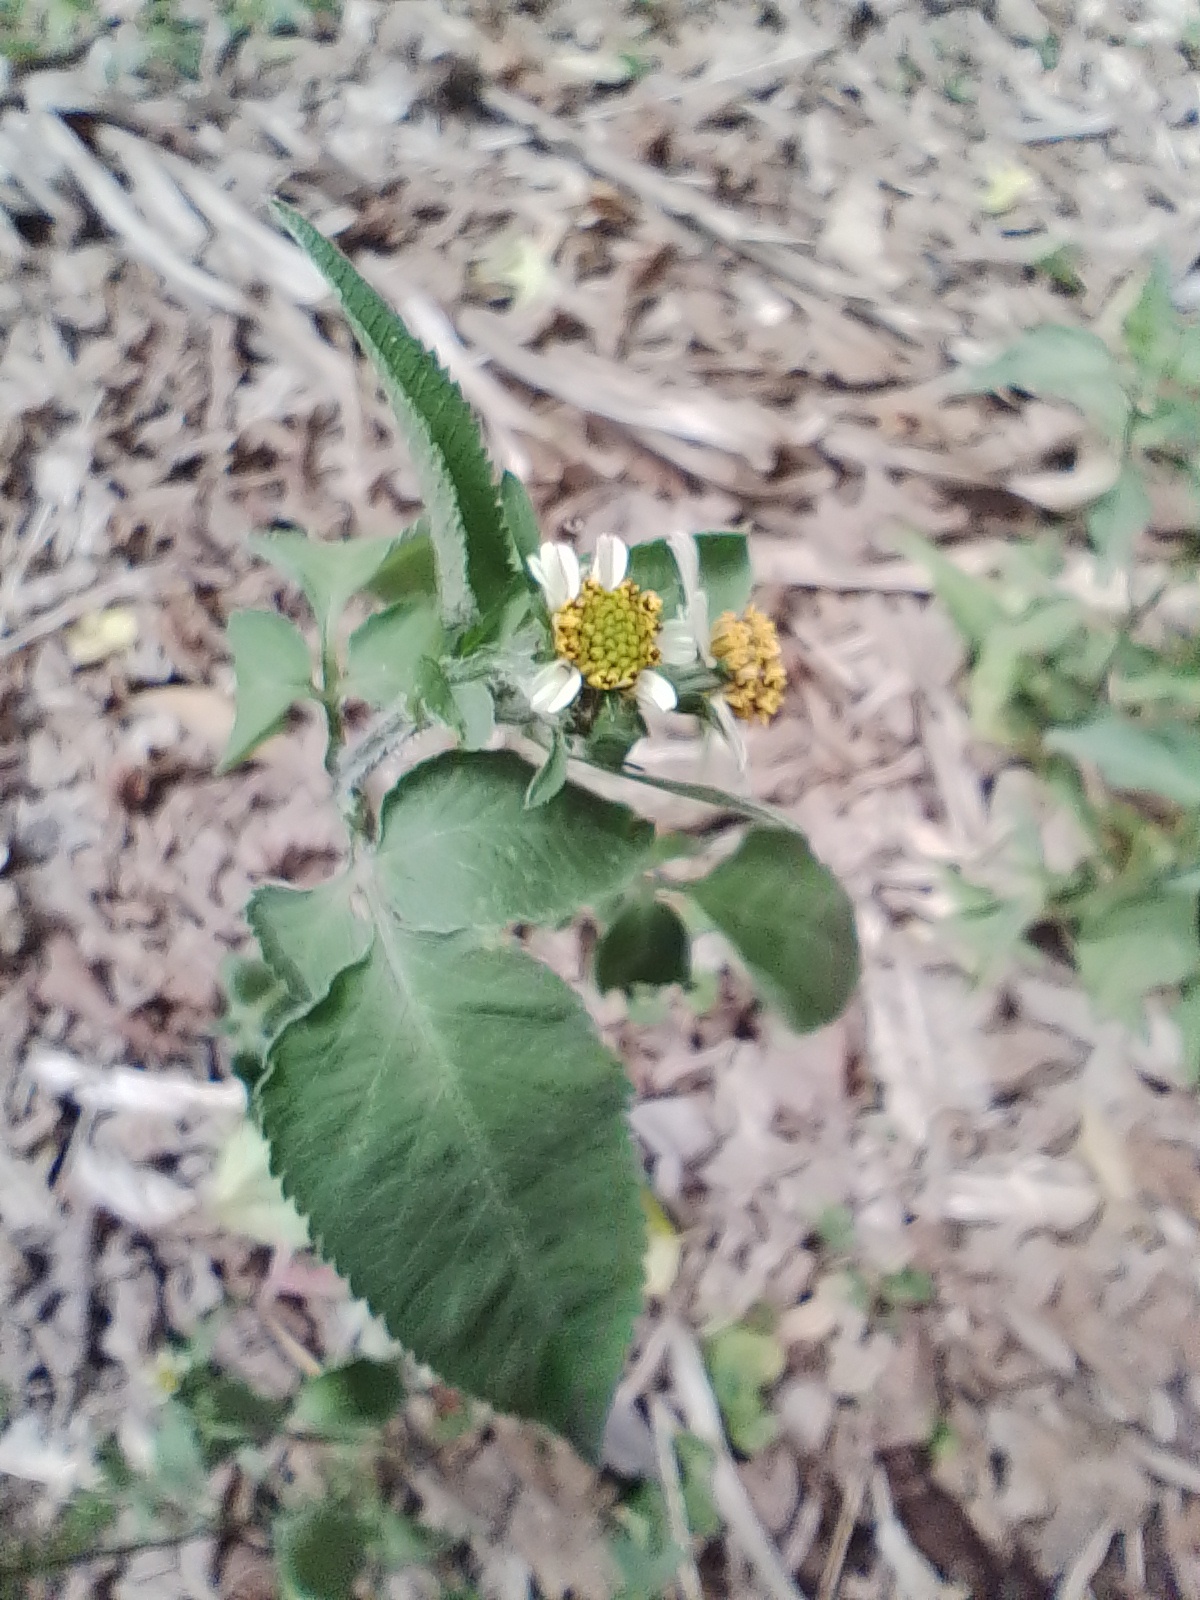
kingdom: Plantae
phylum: Tracheophyta
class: Magnoliopsida
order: Asterales
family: Asteraceae
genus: Bidens
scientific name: Bidens pilosa
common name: Black-jack
